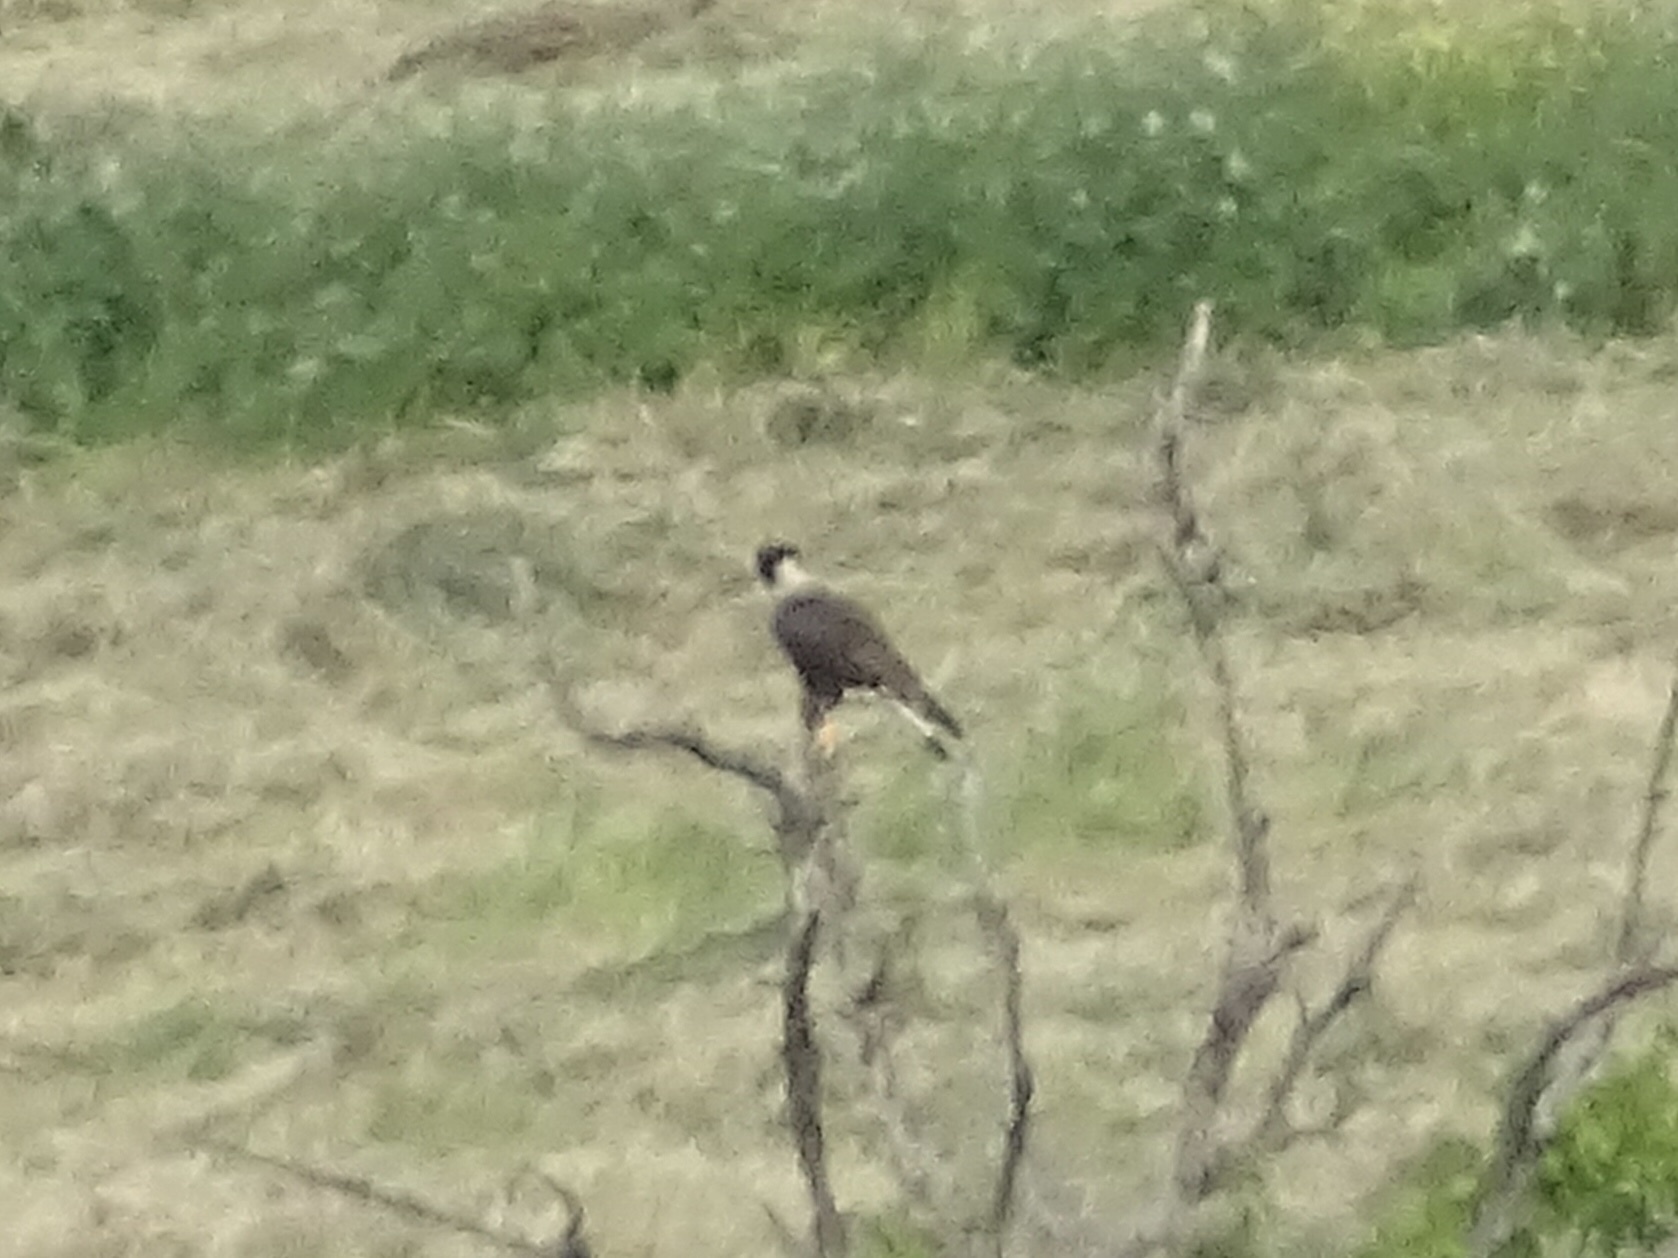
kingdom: Animalia
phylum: Chordata
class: Aves
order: Falconiformes
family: Falconidae
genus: Caracara
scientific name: Caracara plancus
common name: Southern caracara
